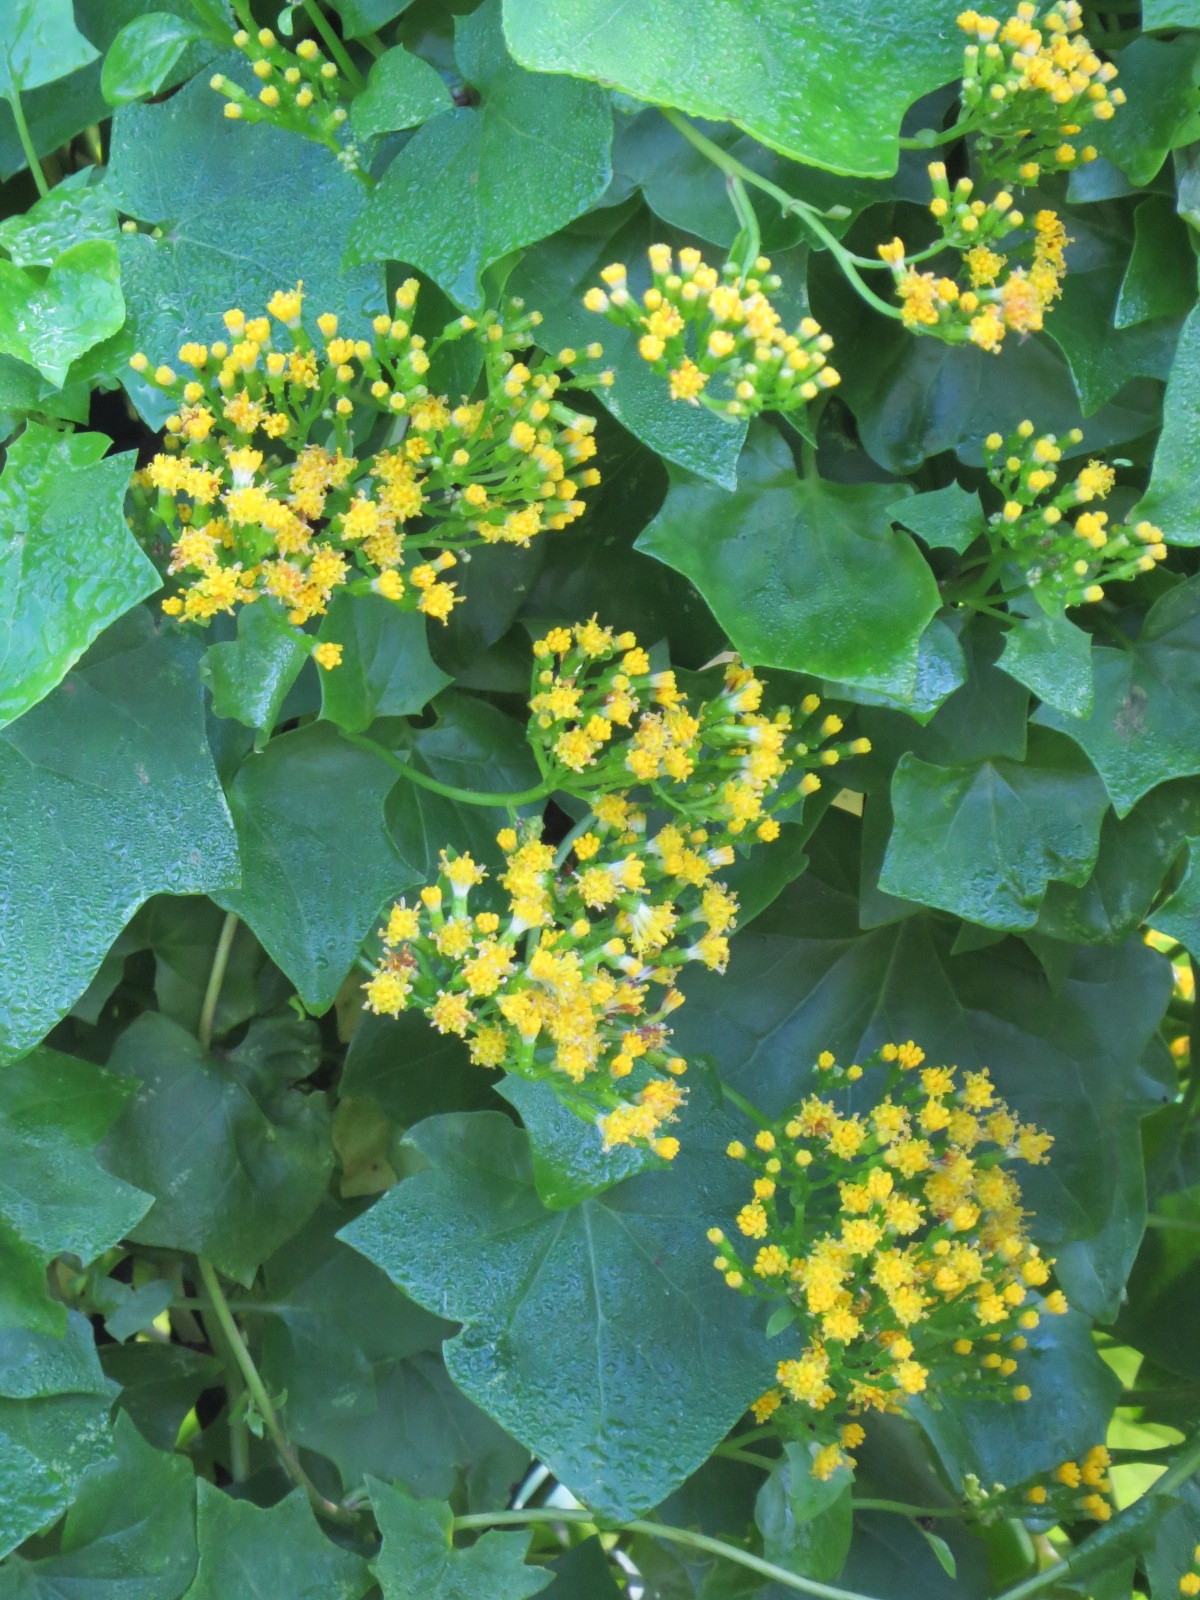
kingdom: Plantae
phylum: Tracheophyta
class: Magnoliopsida
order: Asterales
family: Asteraceae
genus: Delairea
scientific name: Delairea odorata
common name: Cape-ivy
